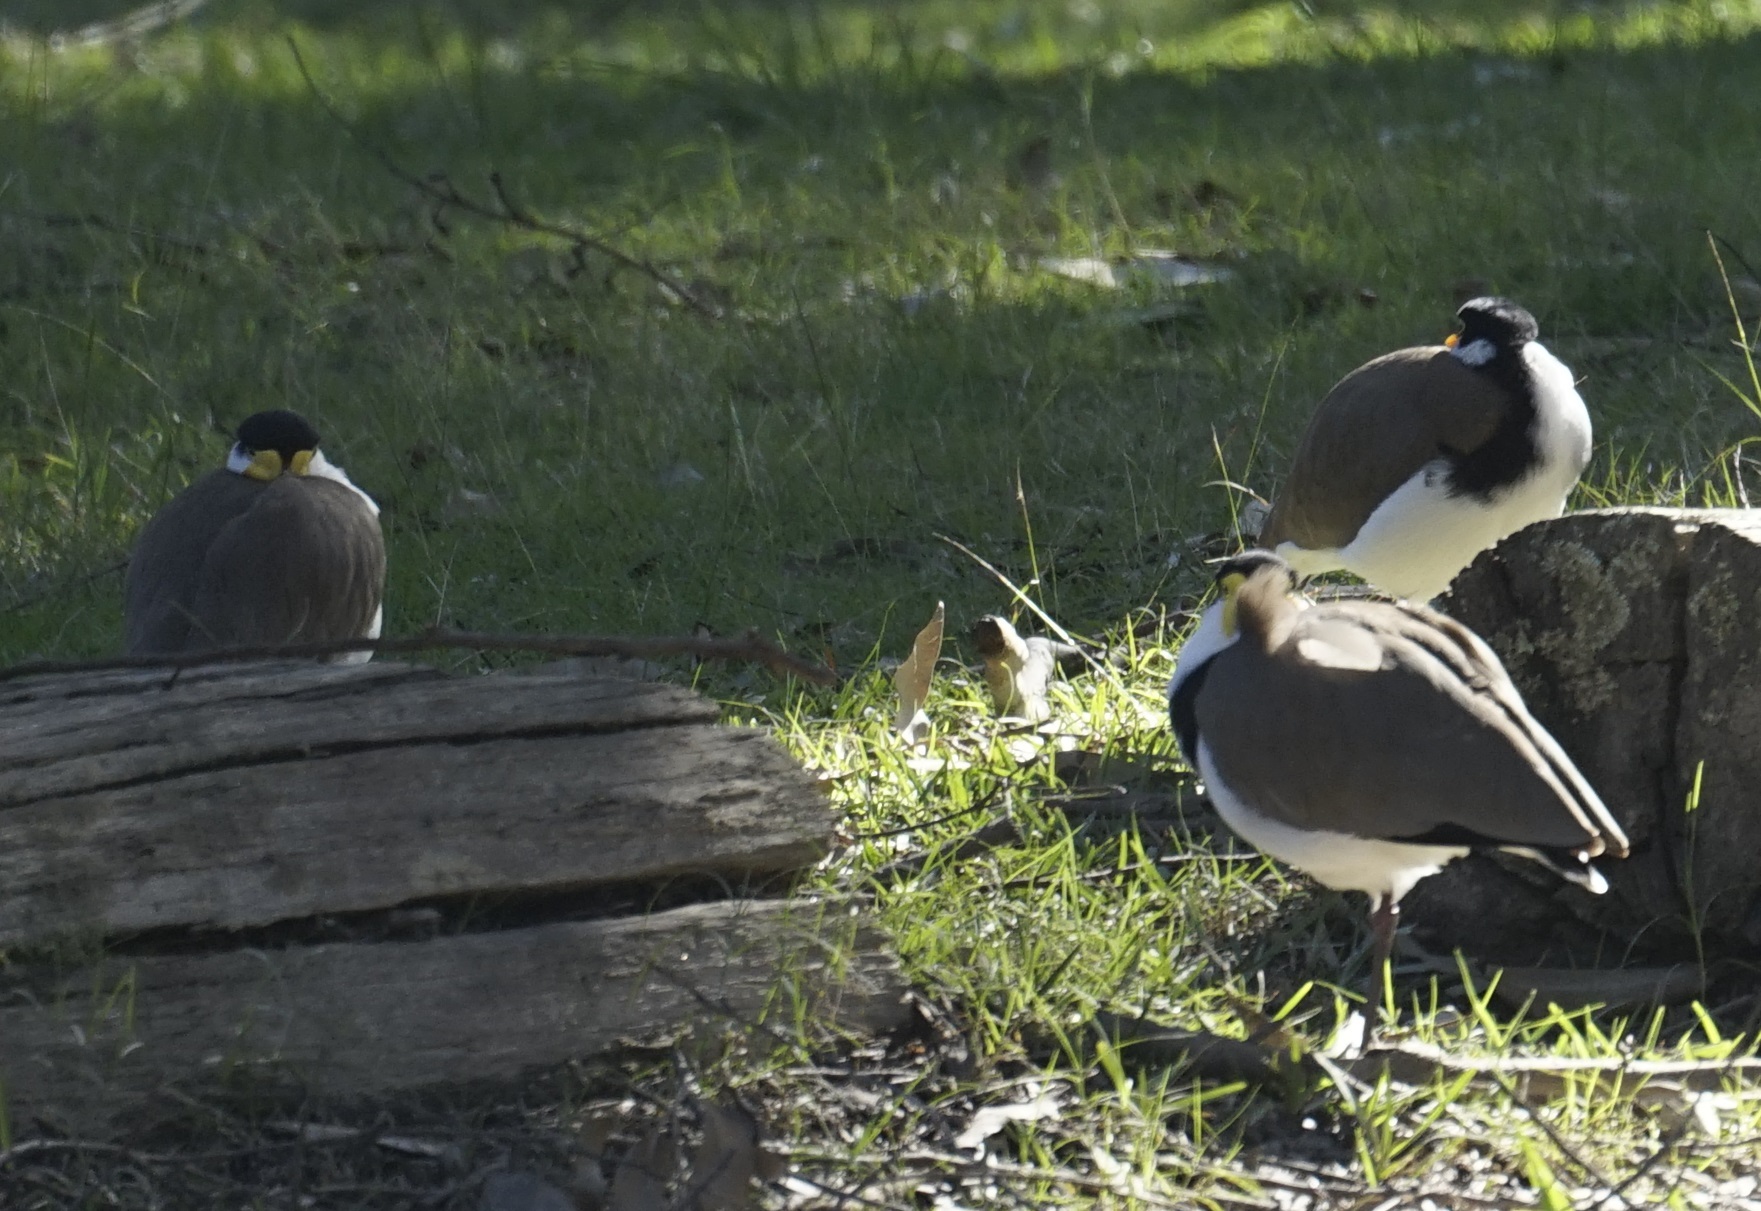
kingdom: Animalia
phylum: Chordata
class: Aves
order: Charadriiformes
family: Charadriidae
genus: Vanellus
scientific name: Vanellus miles
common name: Masked lapwing
